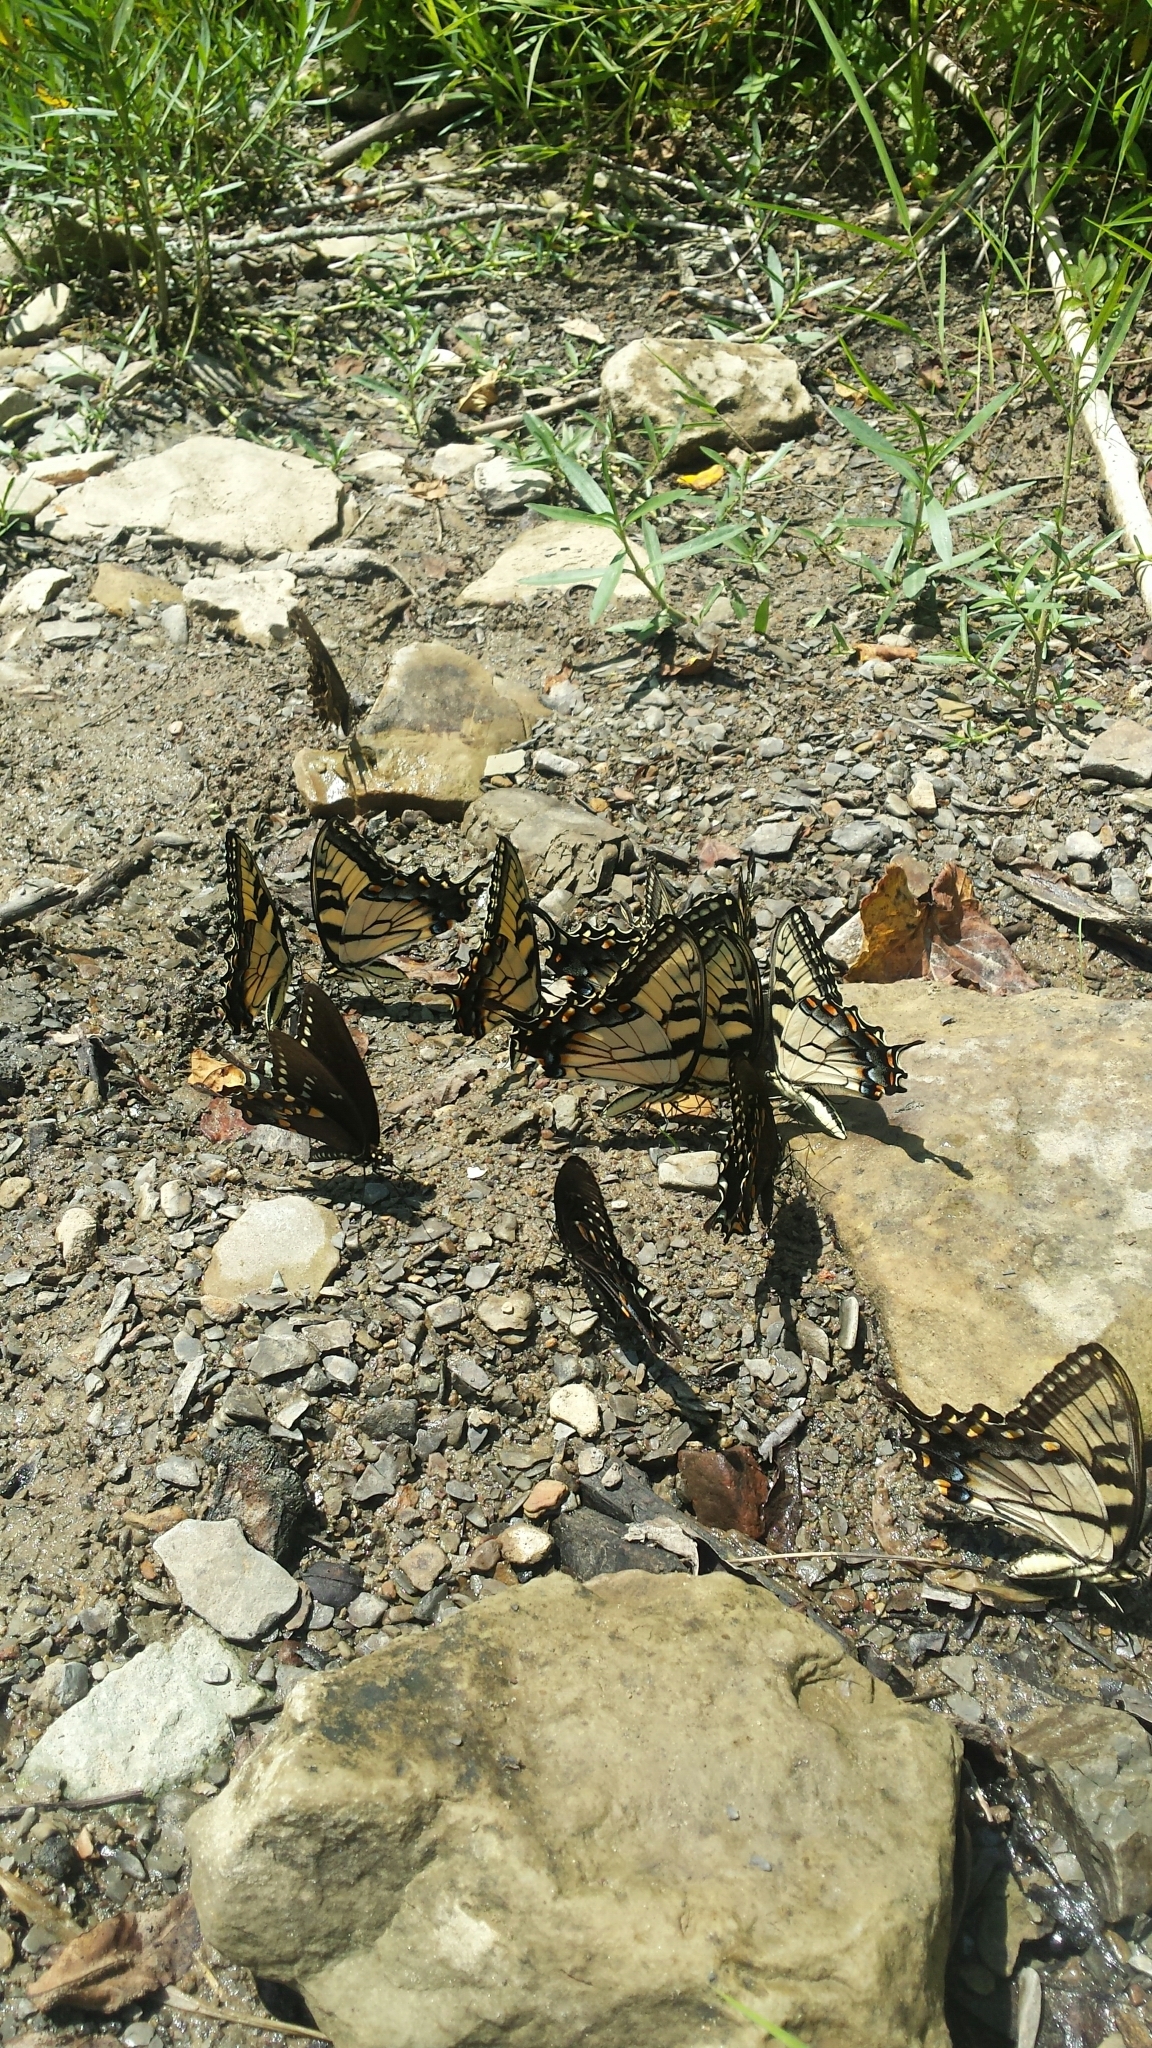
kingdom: Animalia
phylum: Arthropoda
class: Insecta
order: Lepidoptera
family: Papilionidae
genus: Papilio
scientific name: Papilio glaucus
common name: Tiger swallowtail
